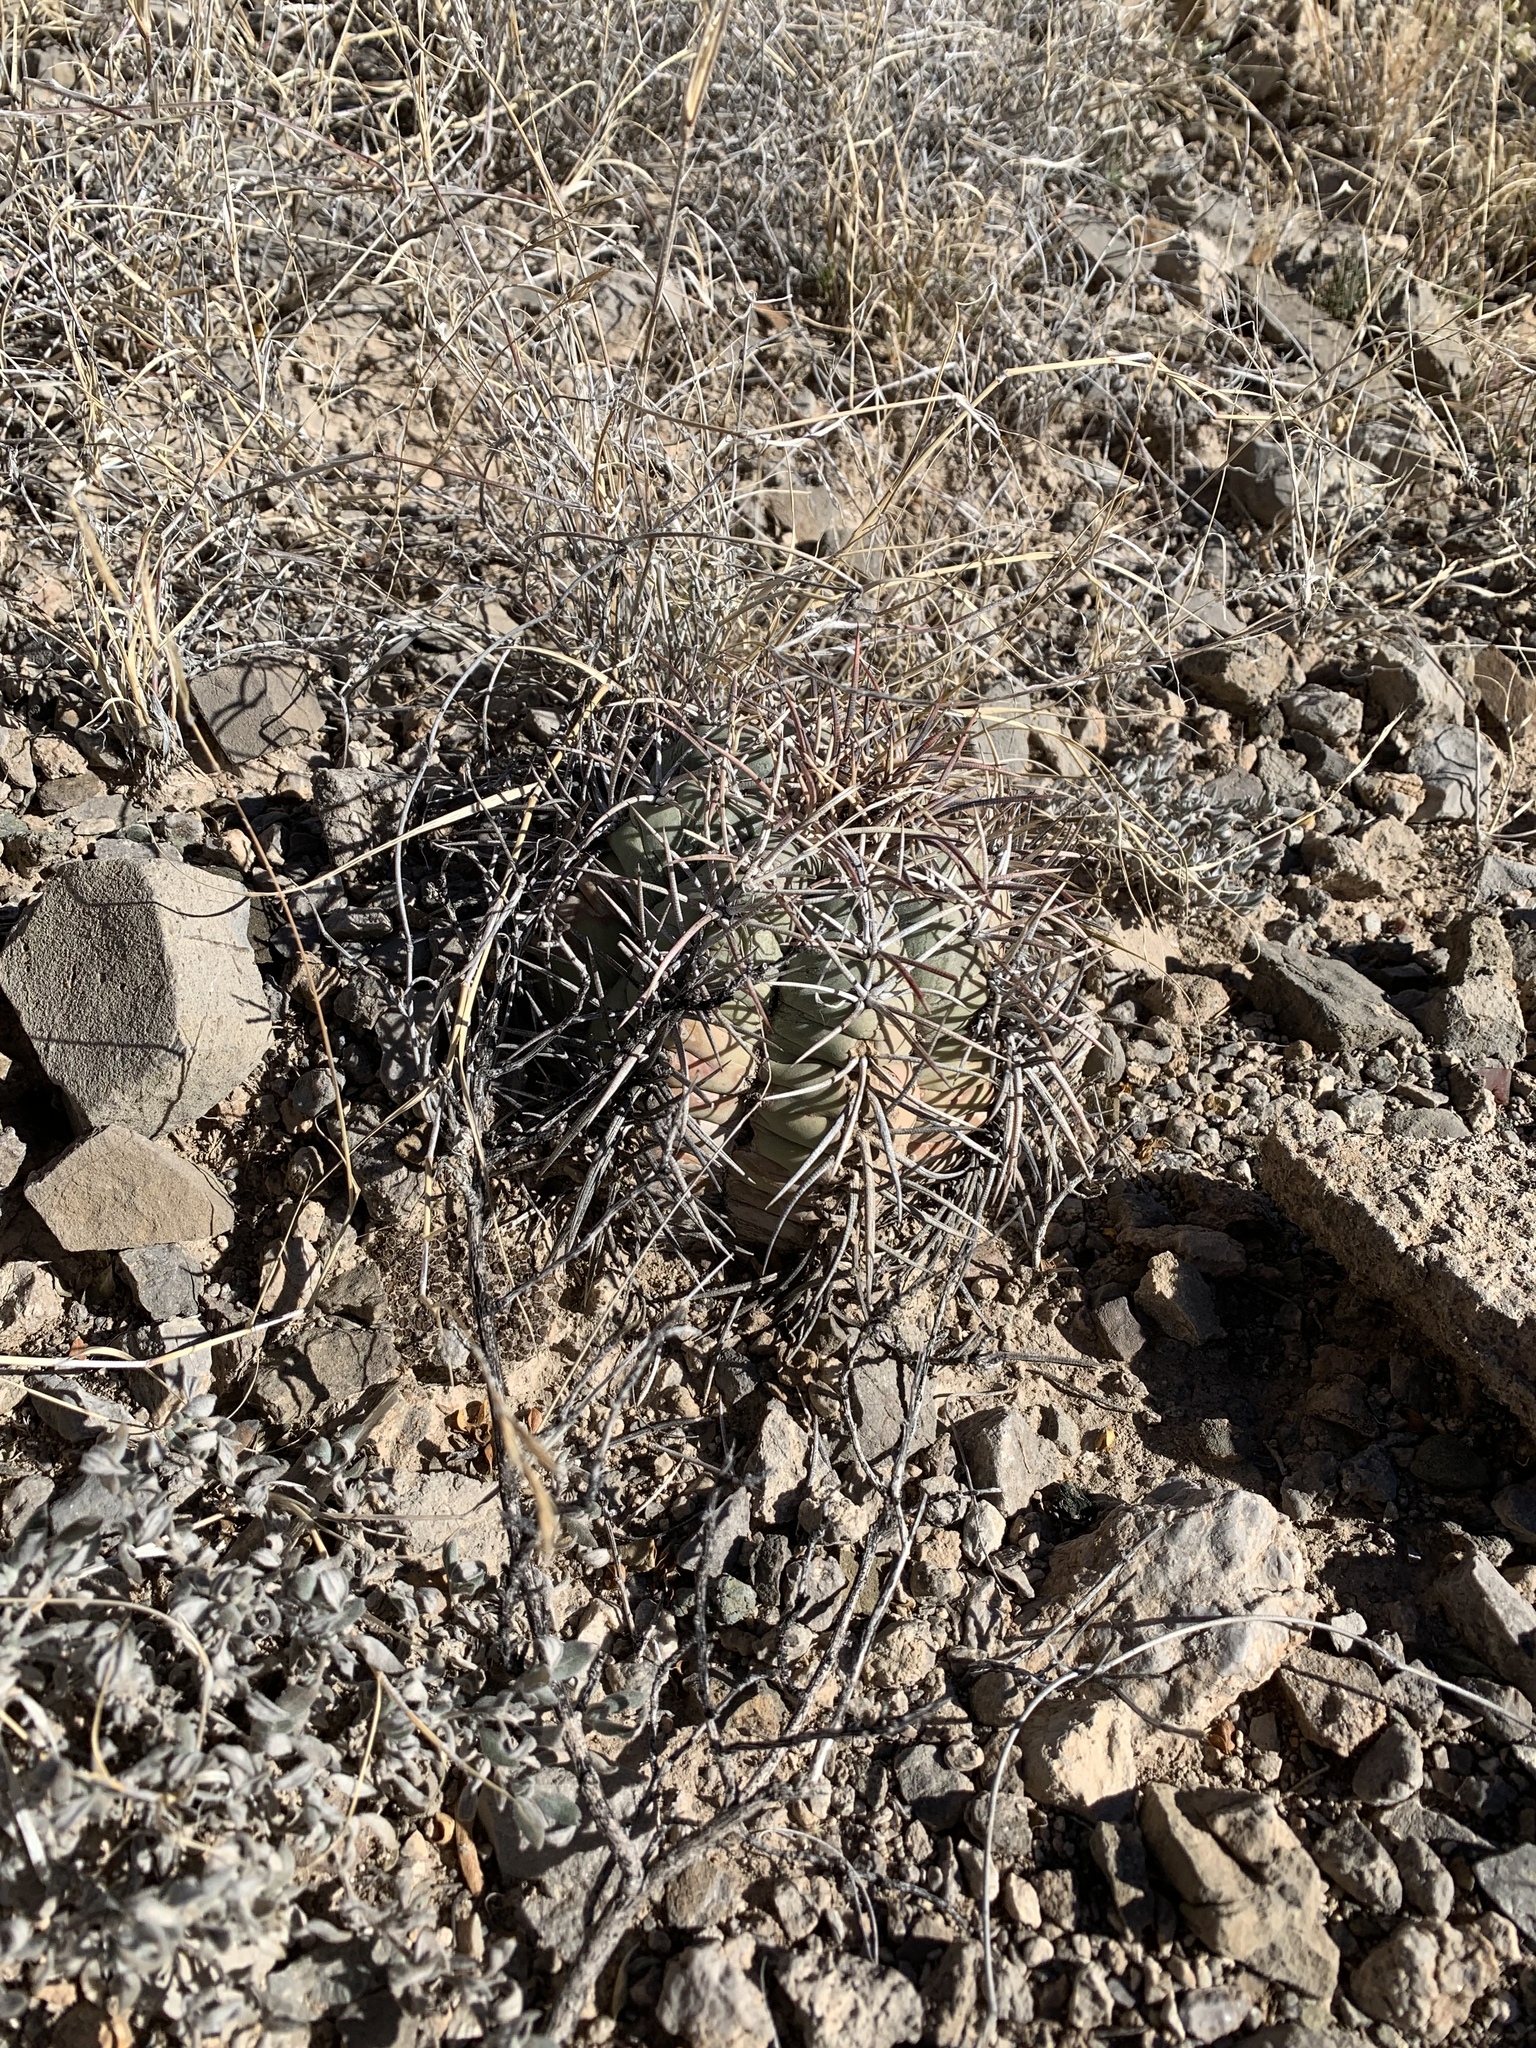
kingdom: Plantae
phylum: Tracheophyta
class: Magnoliopsida
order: Caryophyllales
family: Cactaceae
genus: Echinocactus
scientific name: Echinocactus horizonthalonius
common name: Devilshead
